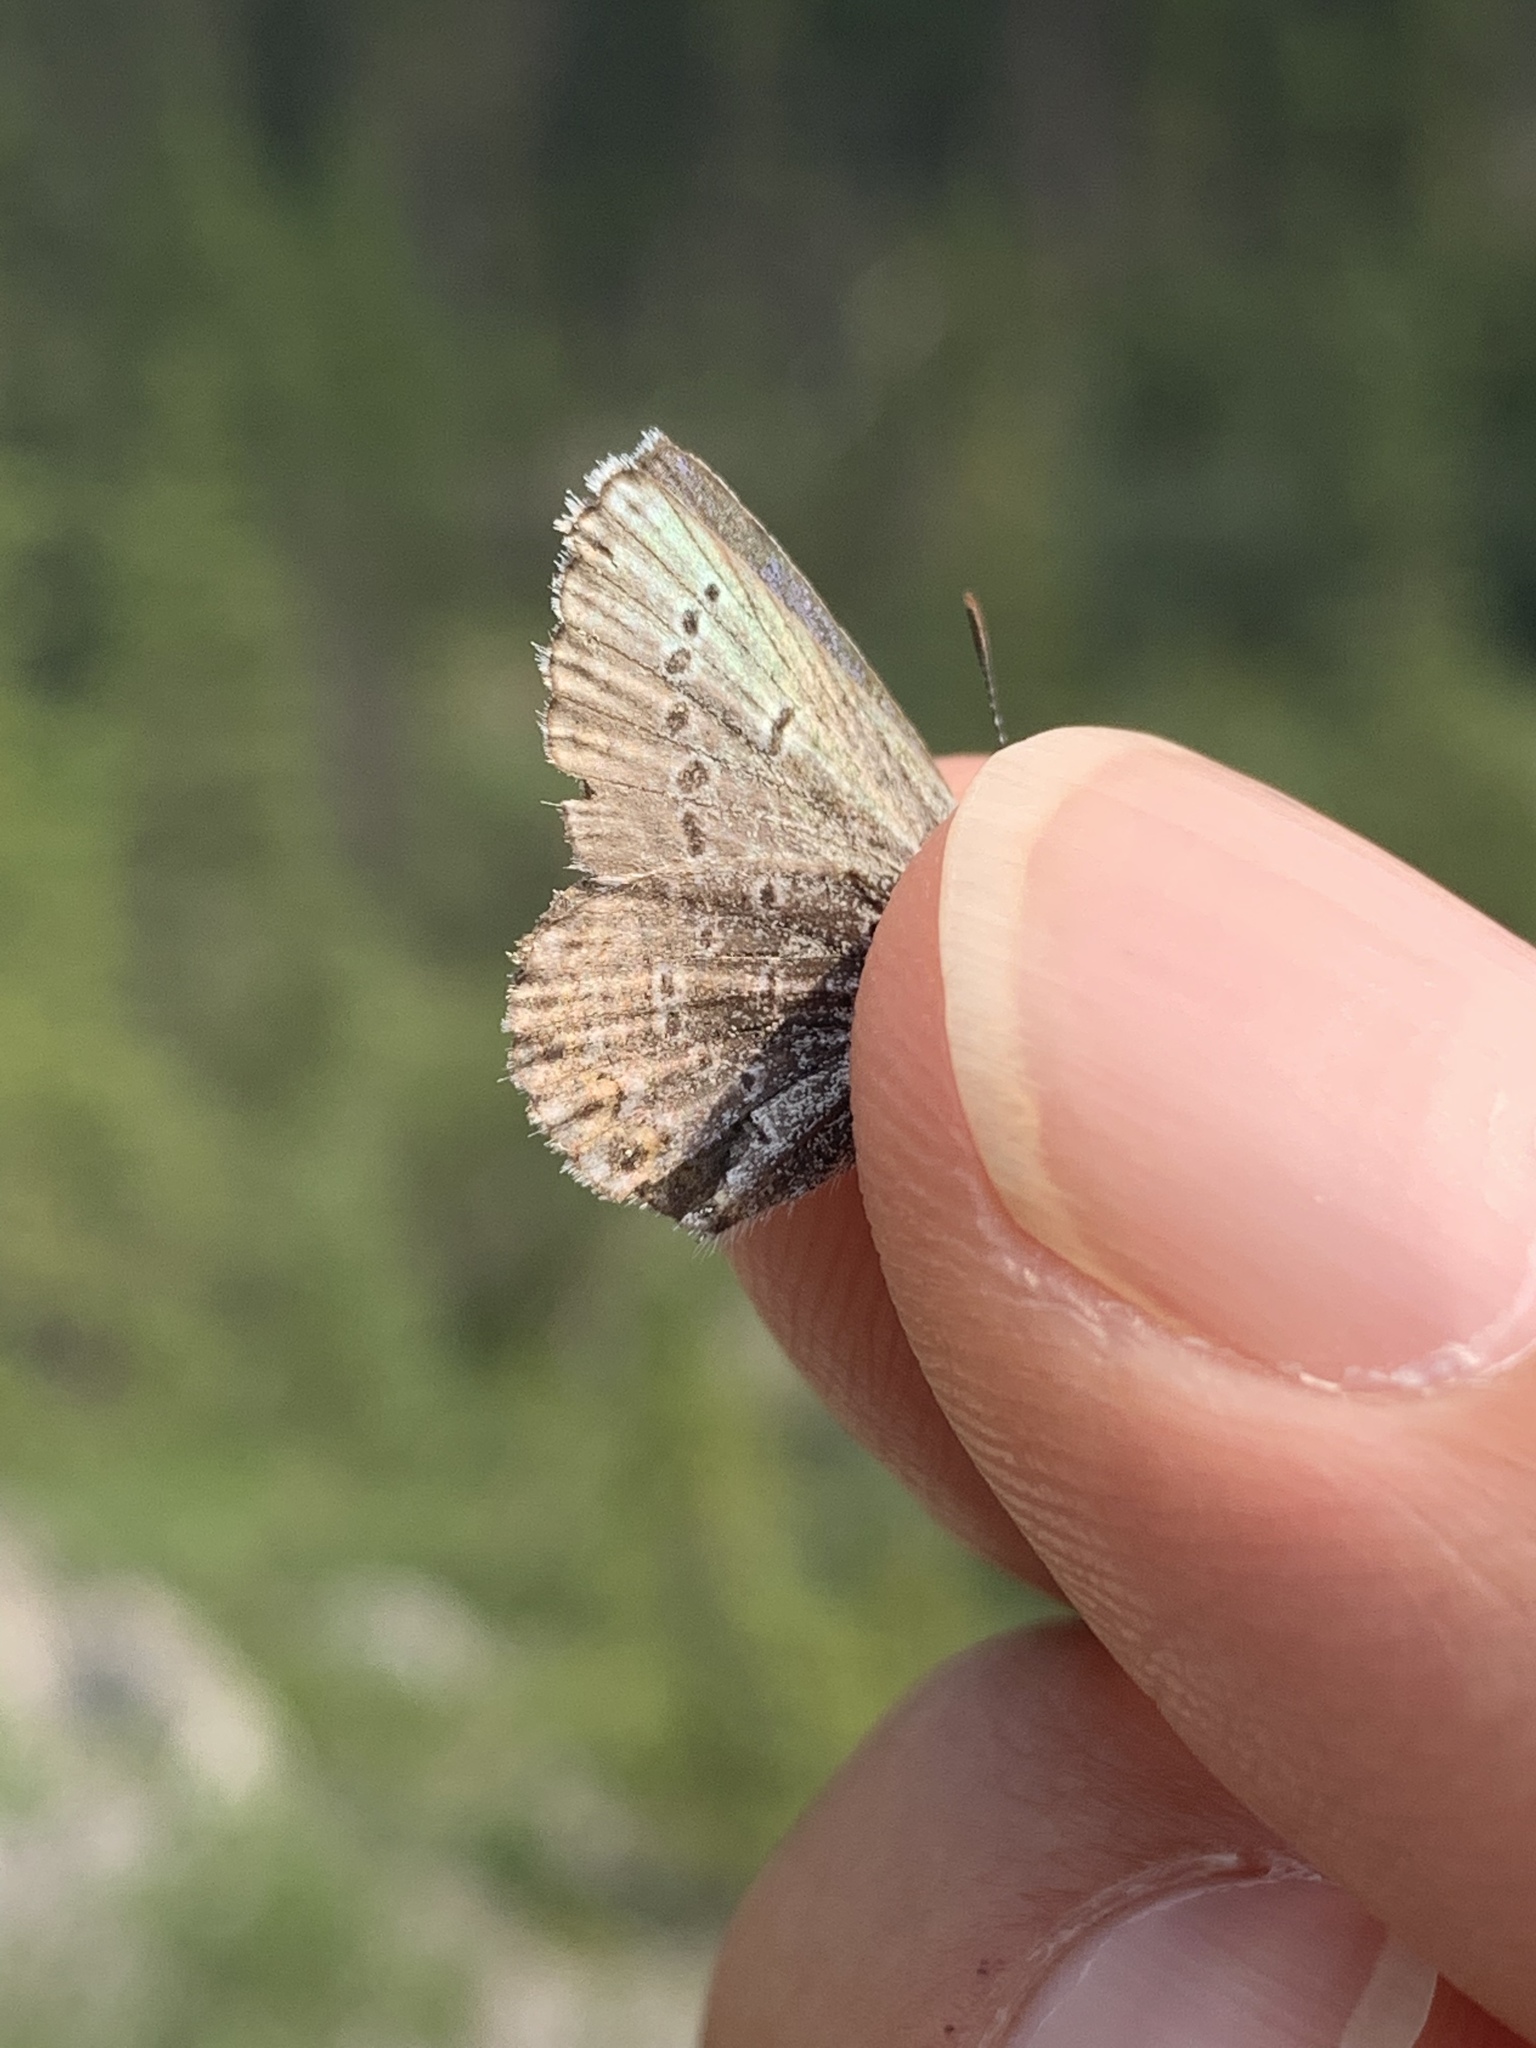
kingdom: Animalia
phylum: Arthropoda
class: Insecta
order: Lepidoptera
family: Lycaenidae
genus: Icaricia
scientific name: Icaricia saepiolus
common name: Greenish blue
